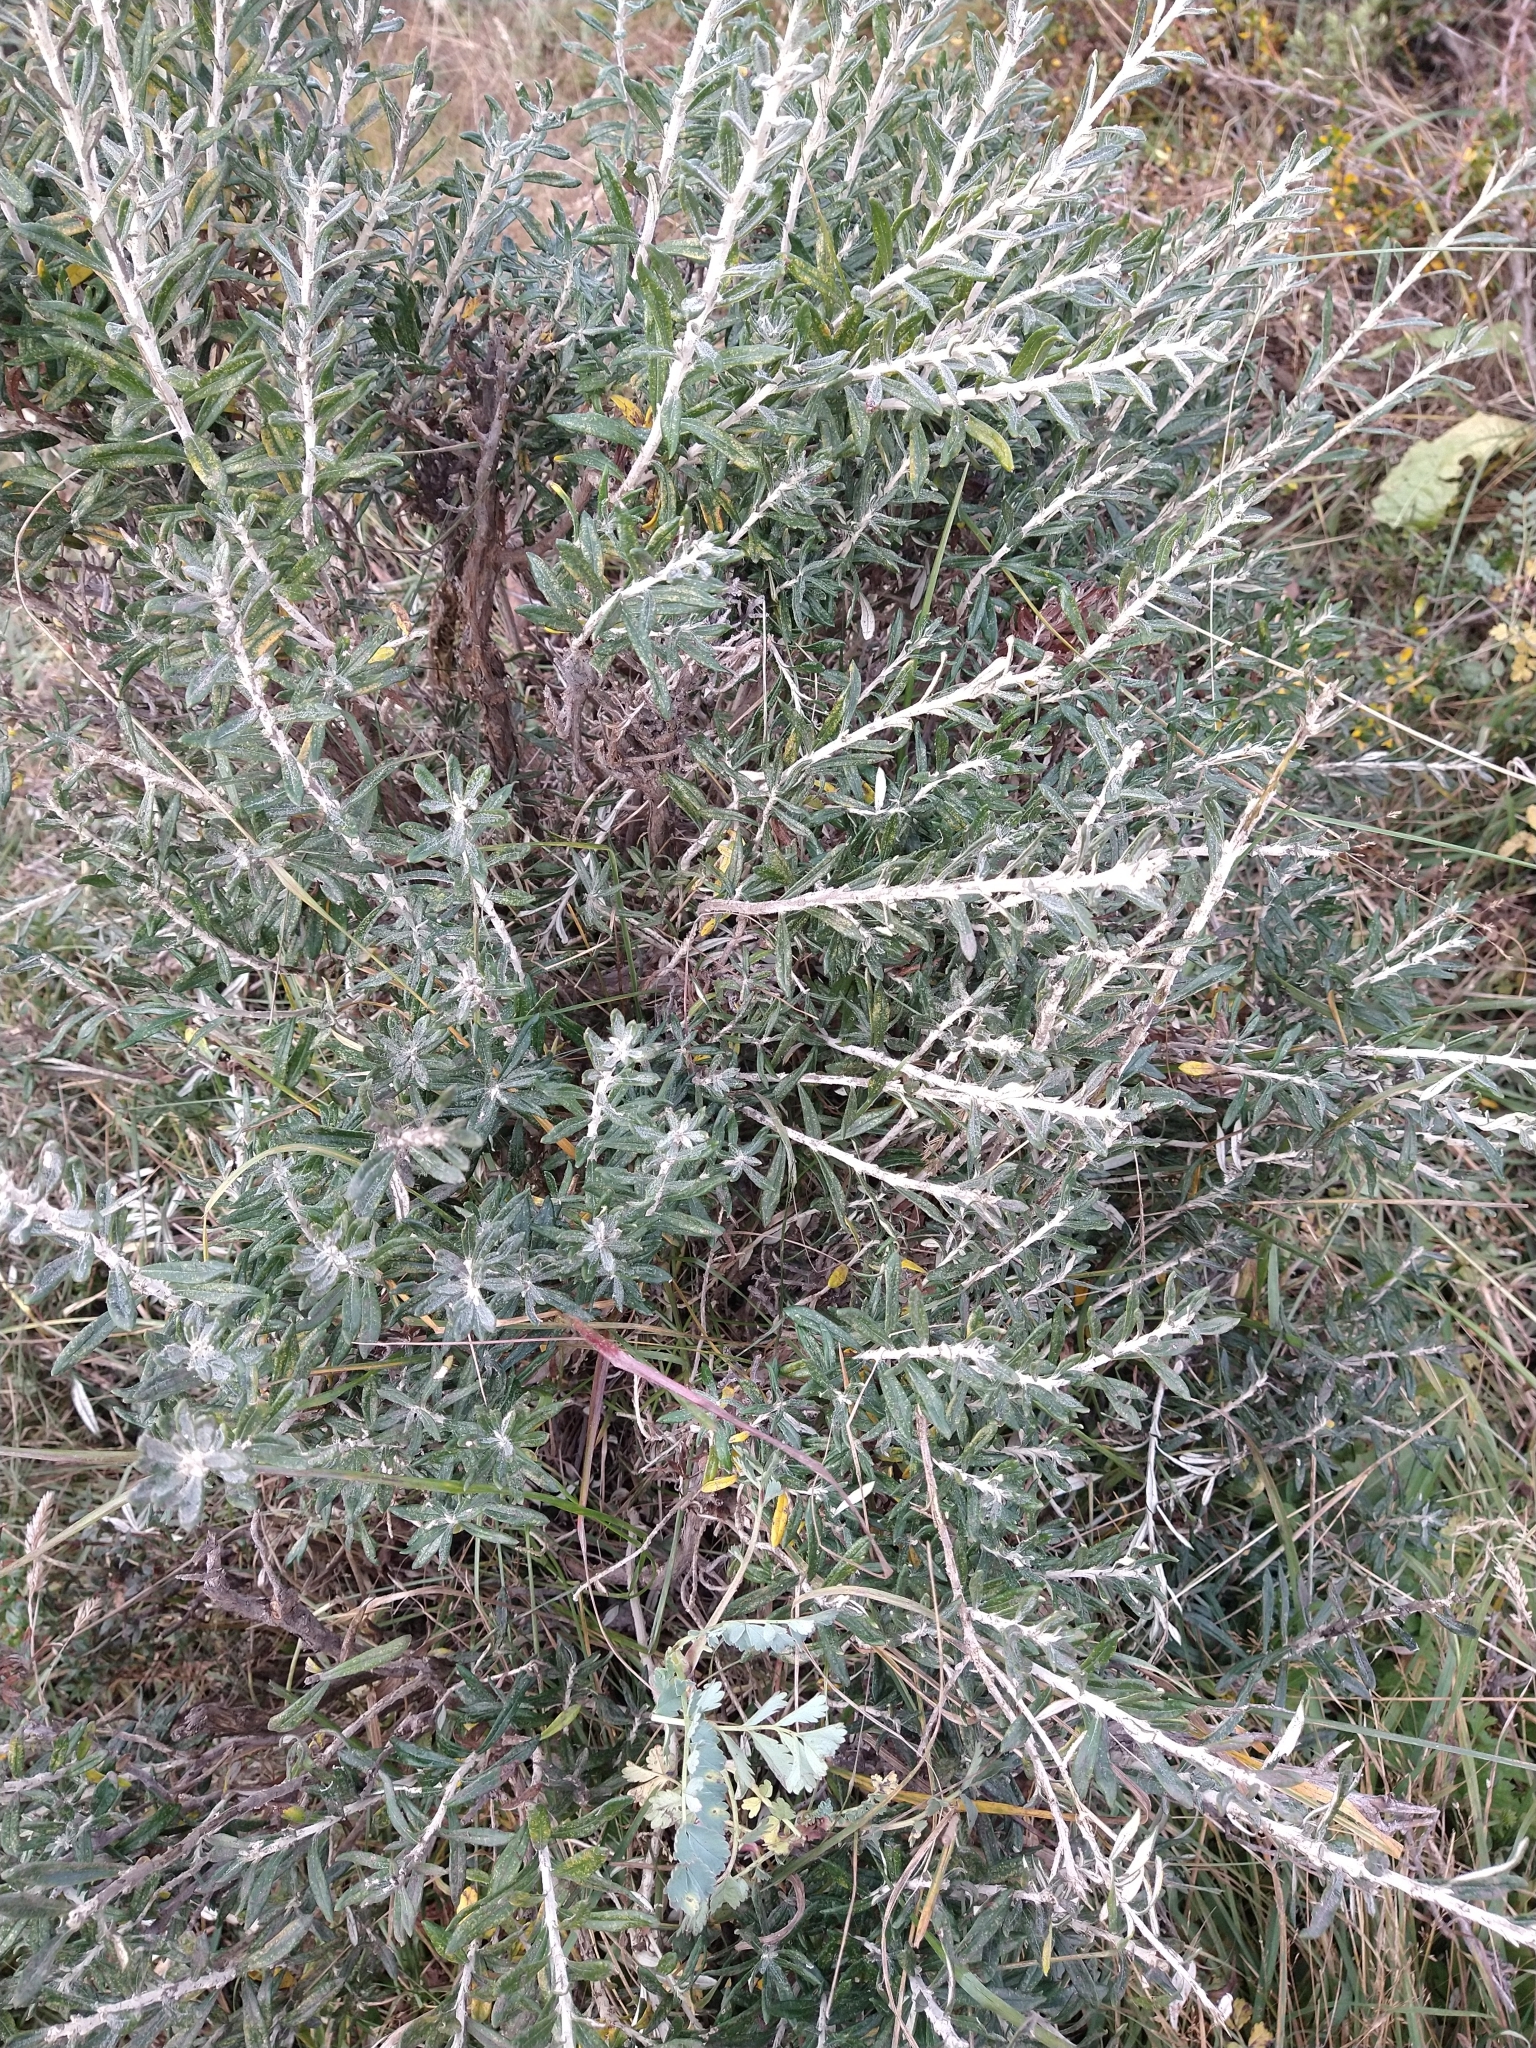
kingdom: Plantae
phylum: Tracheophyta
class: Magnoliopsida
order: Asterales
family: Asteraceae
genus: Chiliotrichum
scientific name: Chiliotrichum diffusum
